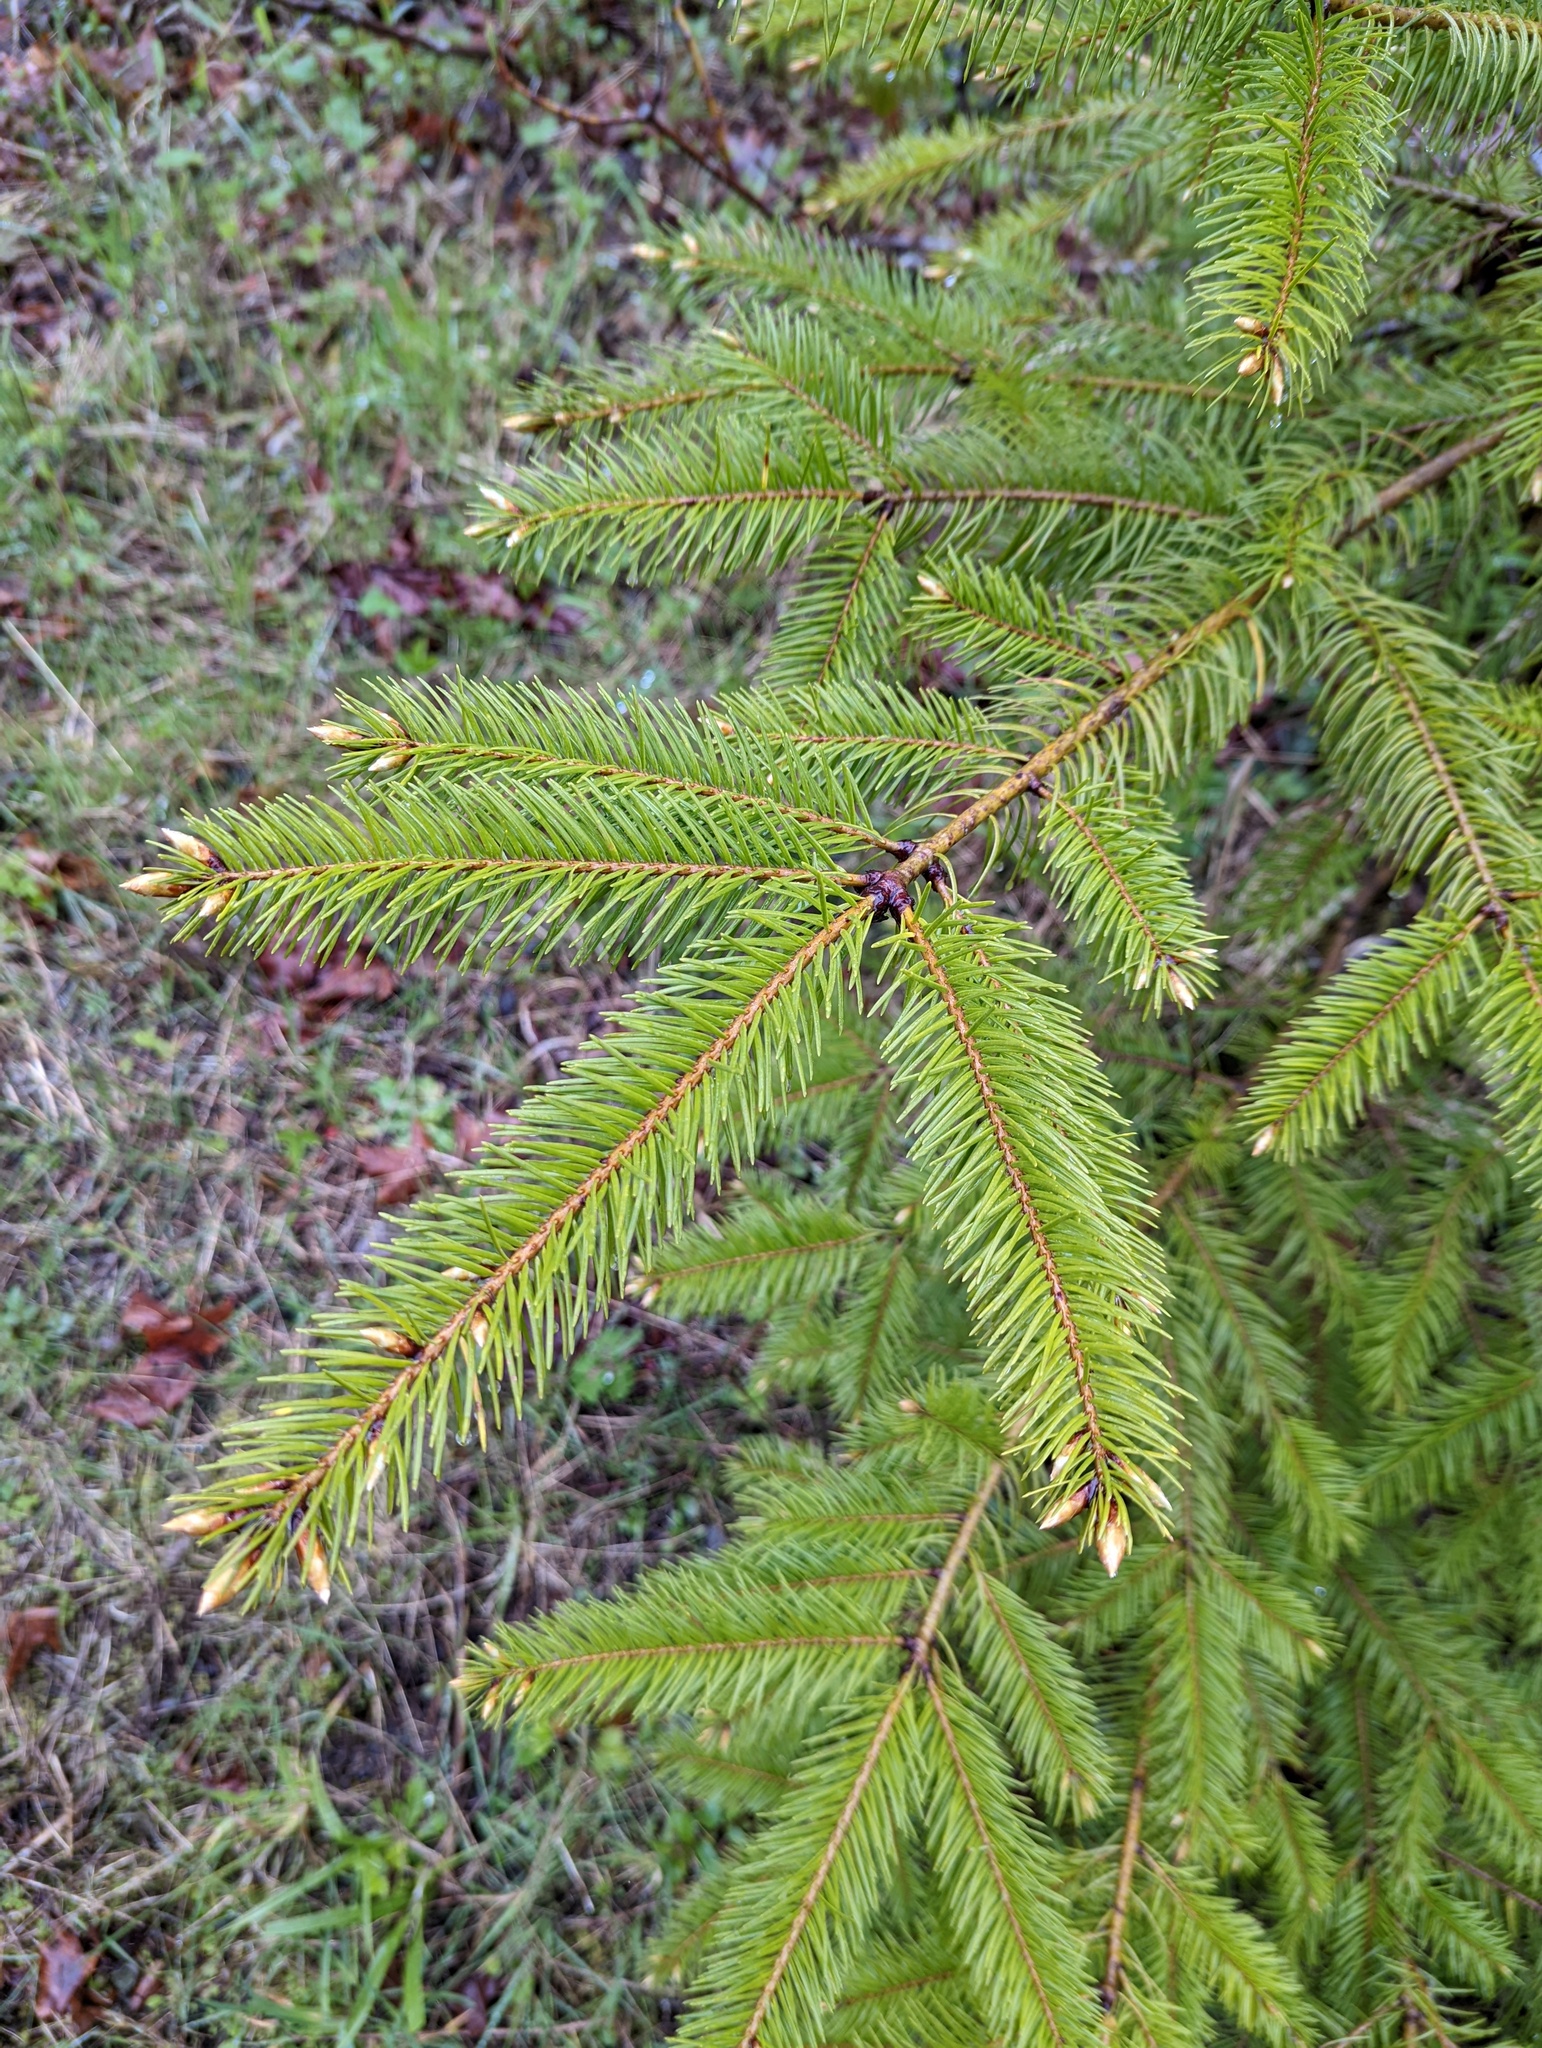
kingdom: Plantae
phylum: Tracheophyta
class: Pinopsida
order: Pinales
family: Pinaceae
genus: Pseudotsuga
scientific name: Pseudotsuga menziesii
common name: Douglas fir
